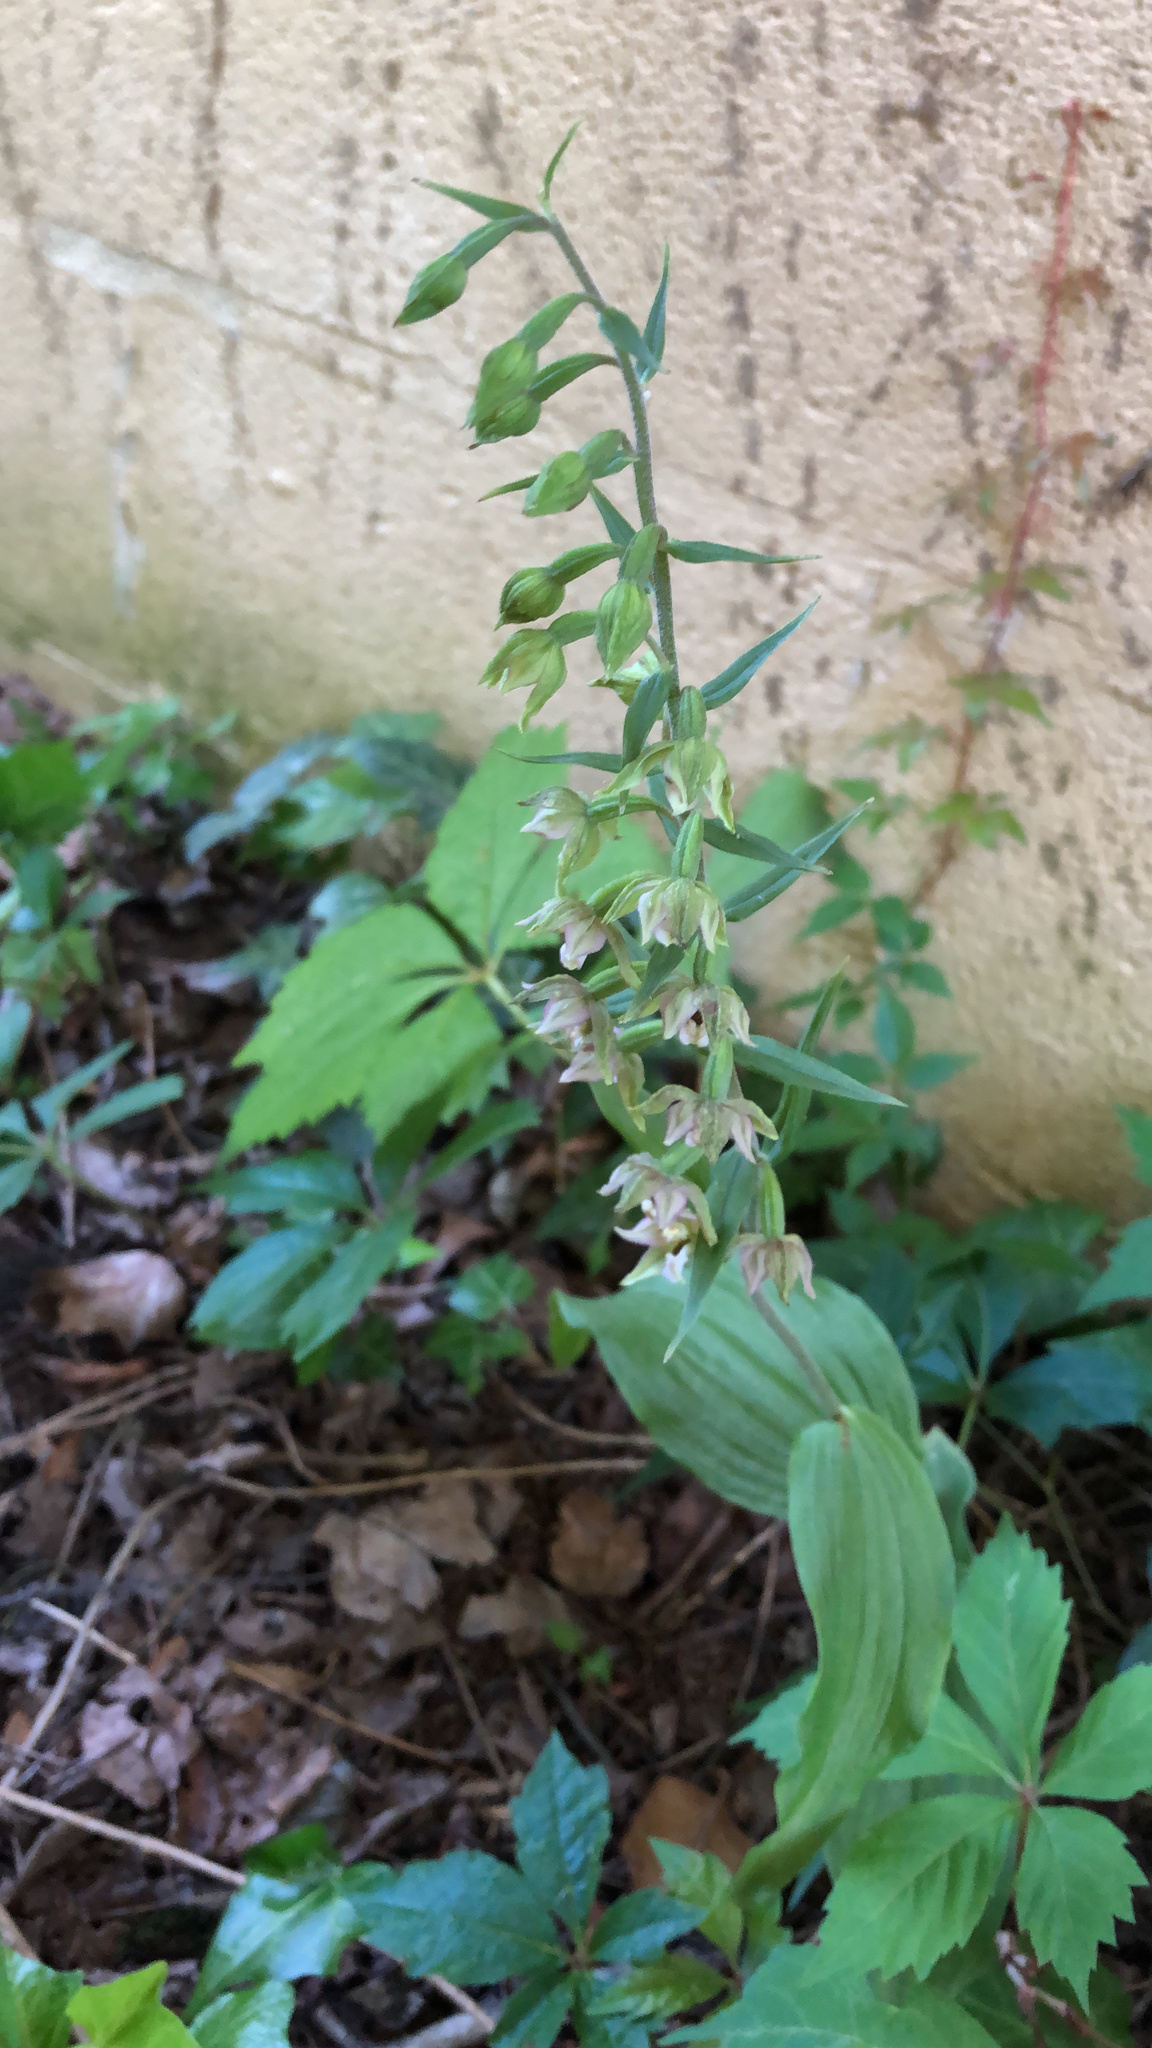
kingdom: Plantae
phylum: Tracheophyta
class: Liliopsida
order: Asparagales
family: Orchidaceae
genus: Epipactis
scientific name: Epipactis helleborine
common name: Broad-leaved helleborine
